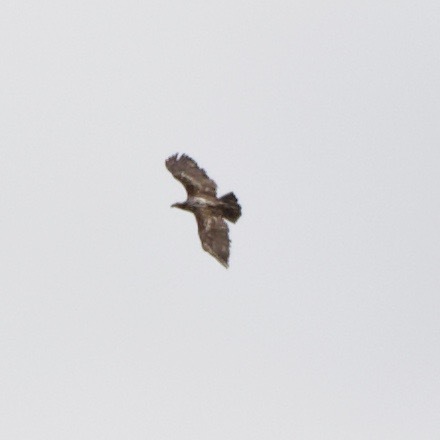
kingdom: Animalia
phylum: Chordata
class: Aves
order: Accipitriformes
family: Accipitridae
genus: Haliaeetus
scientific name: Haliaeetus leucocephalus
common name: Bald eagle
